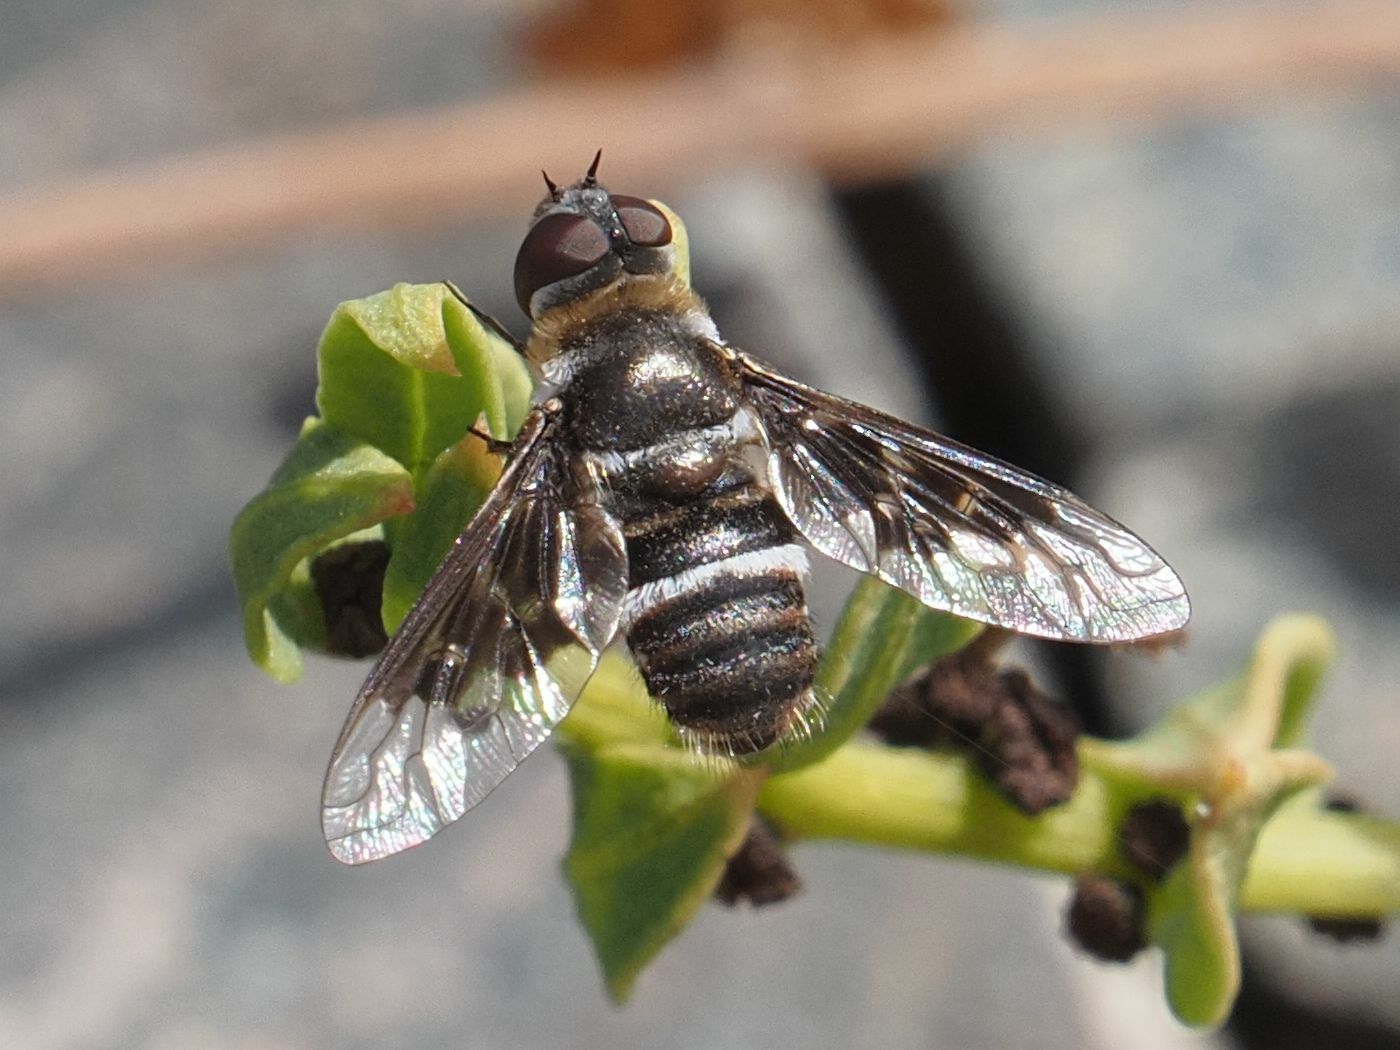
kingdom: Animalia
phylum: Arthropoda
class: Insecta
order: Diptera
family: Bombyliidae
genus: Thyridanthrax
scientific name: Thyridanthrax indigenus
